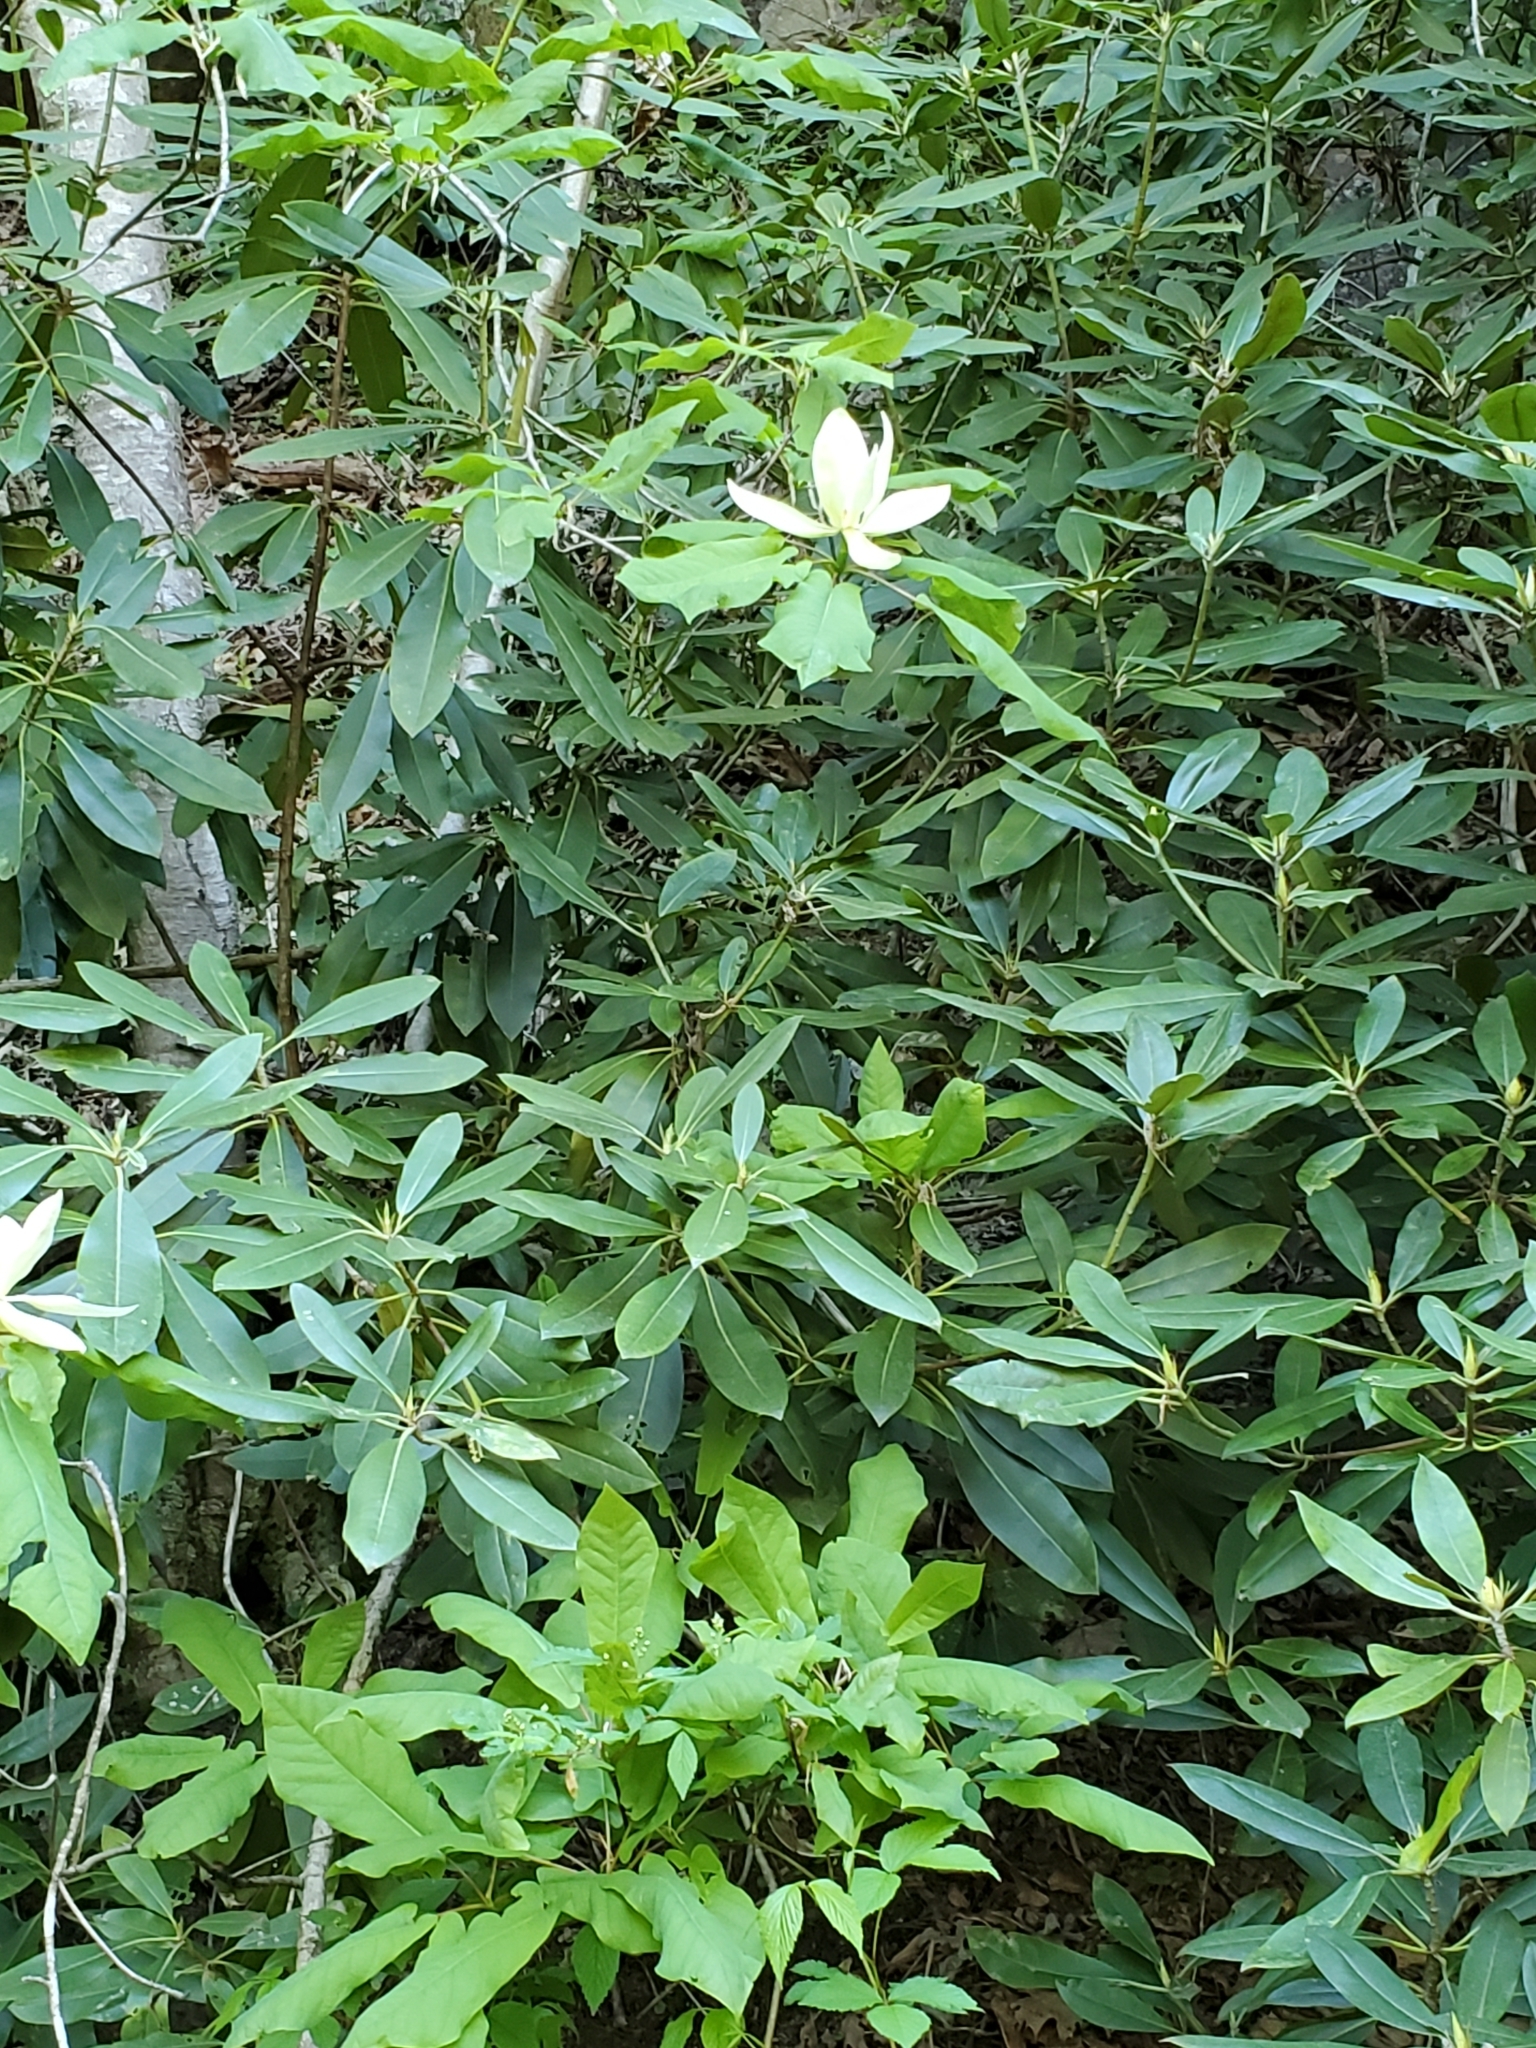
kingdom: Plantae
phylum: Tracheophyta
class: Magnoliopsida
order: Magnoliales
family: Magnoliaceae
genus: Magnolia
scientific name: Magnolia fraseri
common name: Fraser's magnolia
